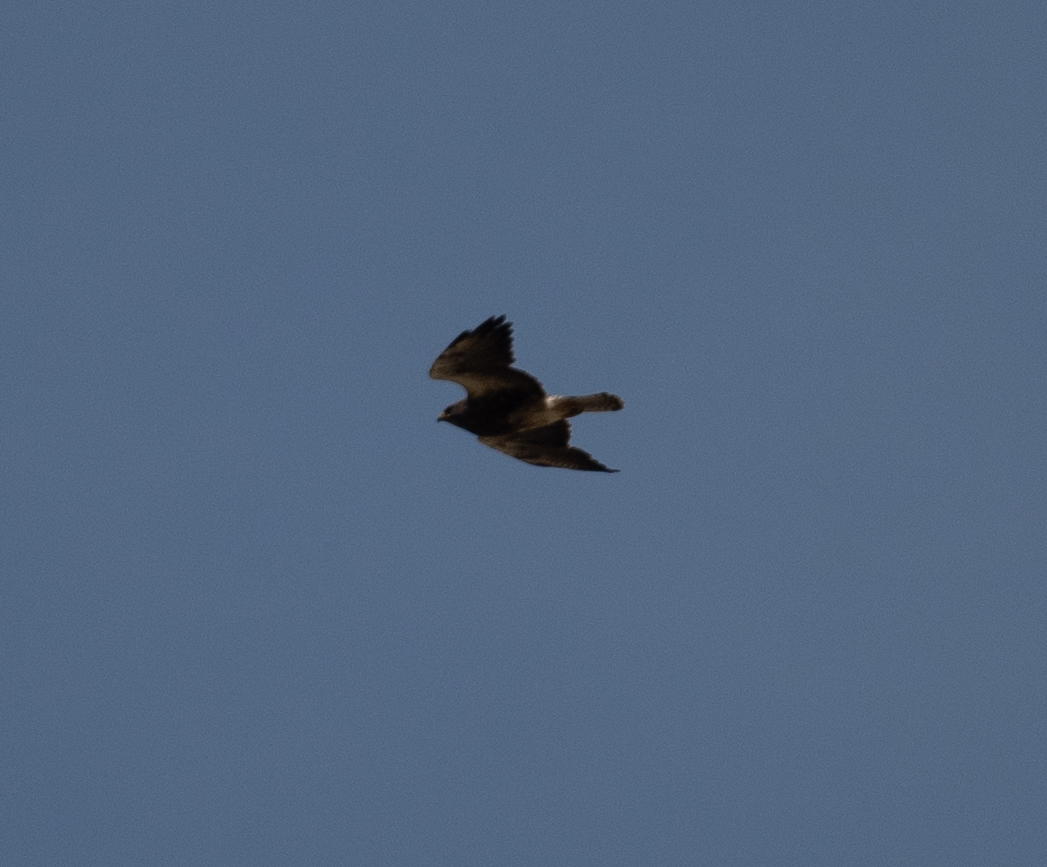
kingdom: Animalia
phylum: Chordata
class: Aves
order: Accipitriformes
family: Accipitridae
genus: Buteo
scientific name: Buteo swainsoni
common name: Swainson's hawk
